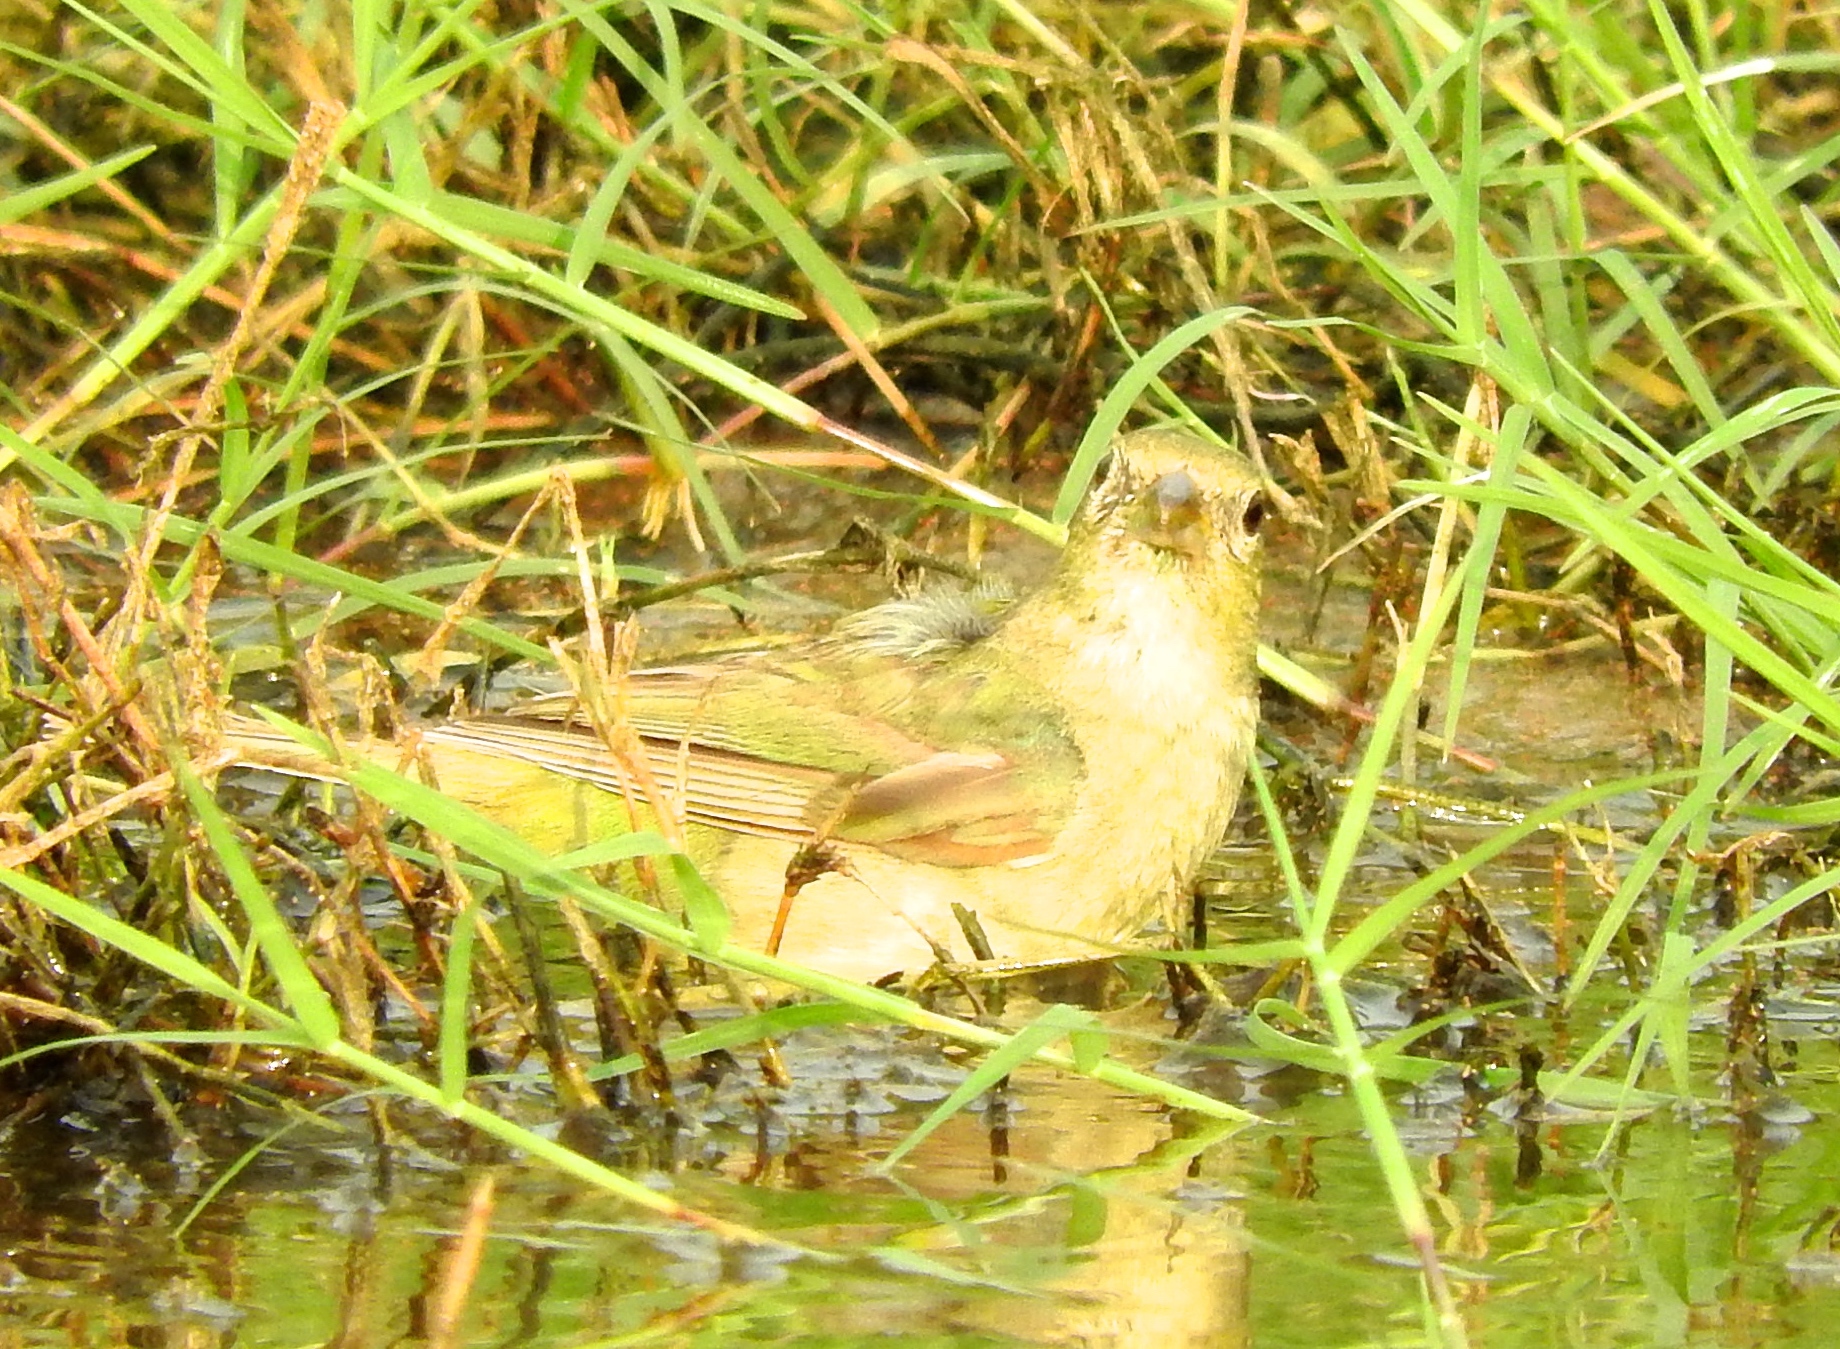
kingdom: Animalia
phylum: Chordata
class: Aves
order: Passeriformes
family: Cardinalidae
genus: Passerina
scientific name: Passerina ciris
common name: Painted bunting
